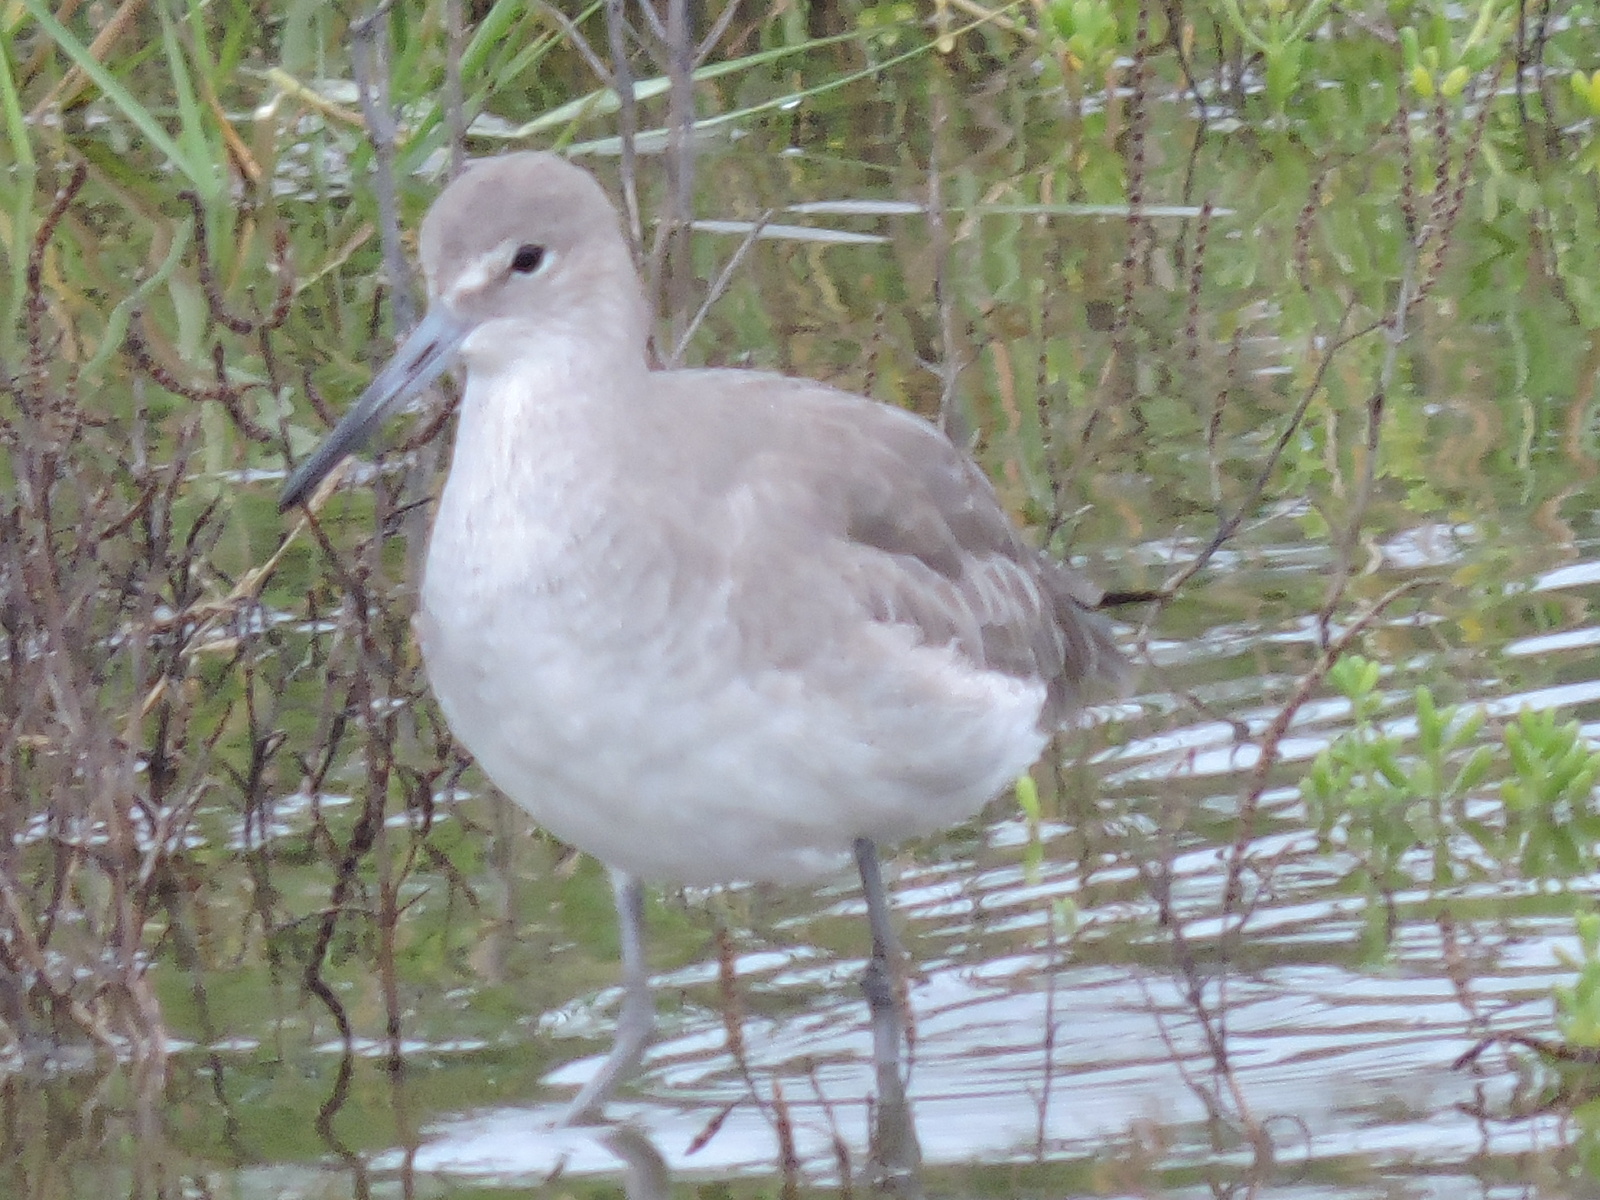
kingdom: Animalia
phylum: Chordata
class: Aves
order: Charadriiformes
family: Scolopacidae
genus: Tringa
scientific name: Tringa semipalmata
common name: Willet
